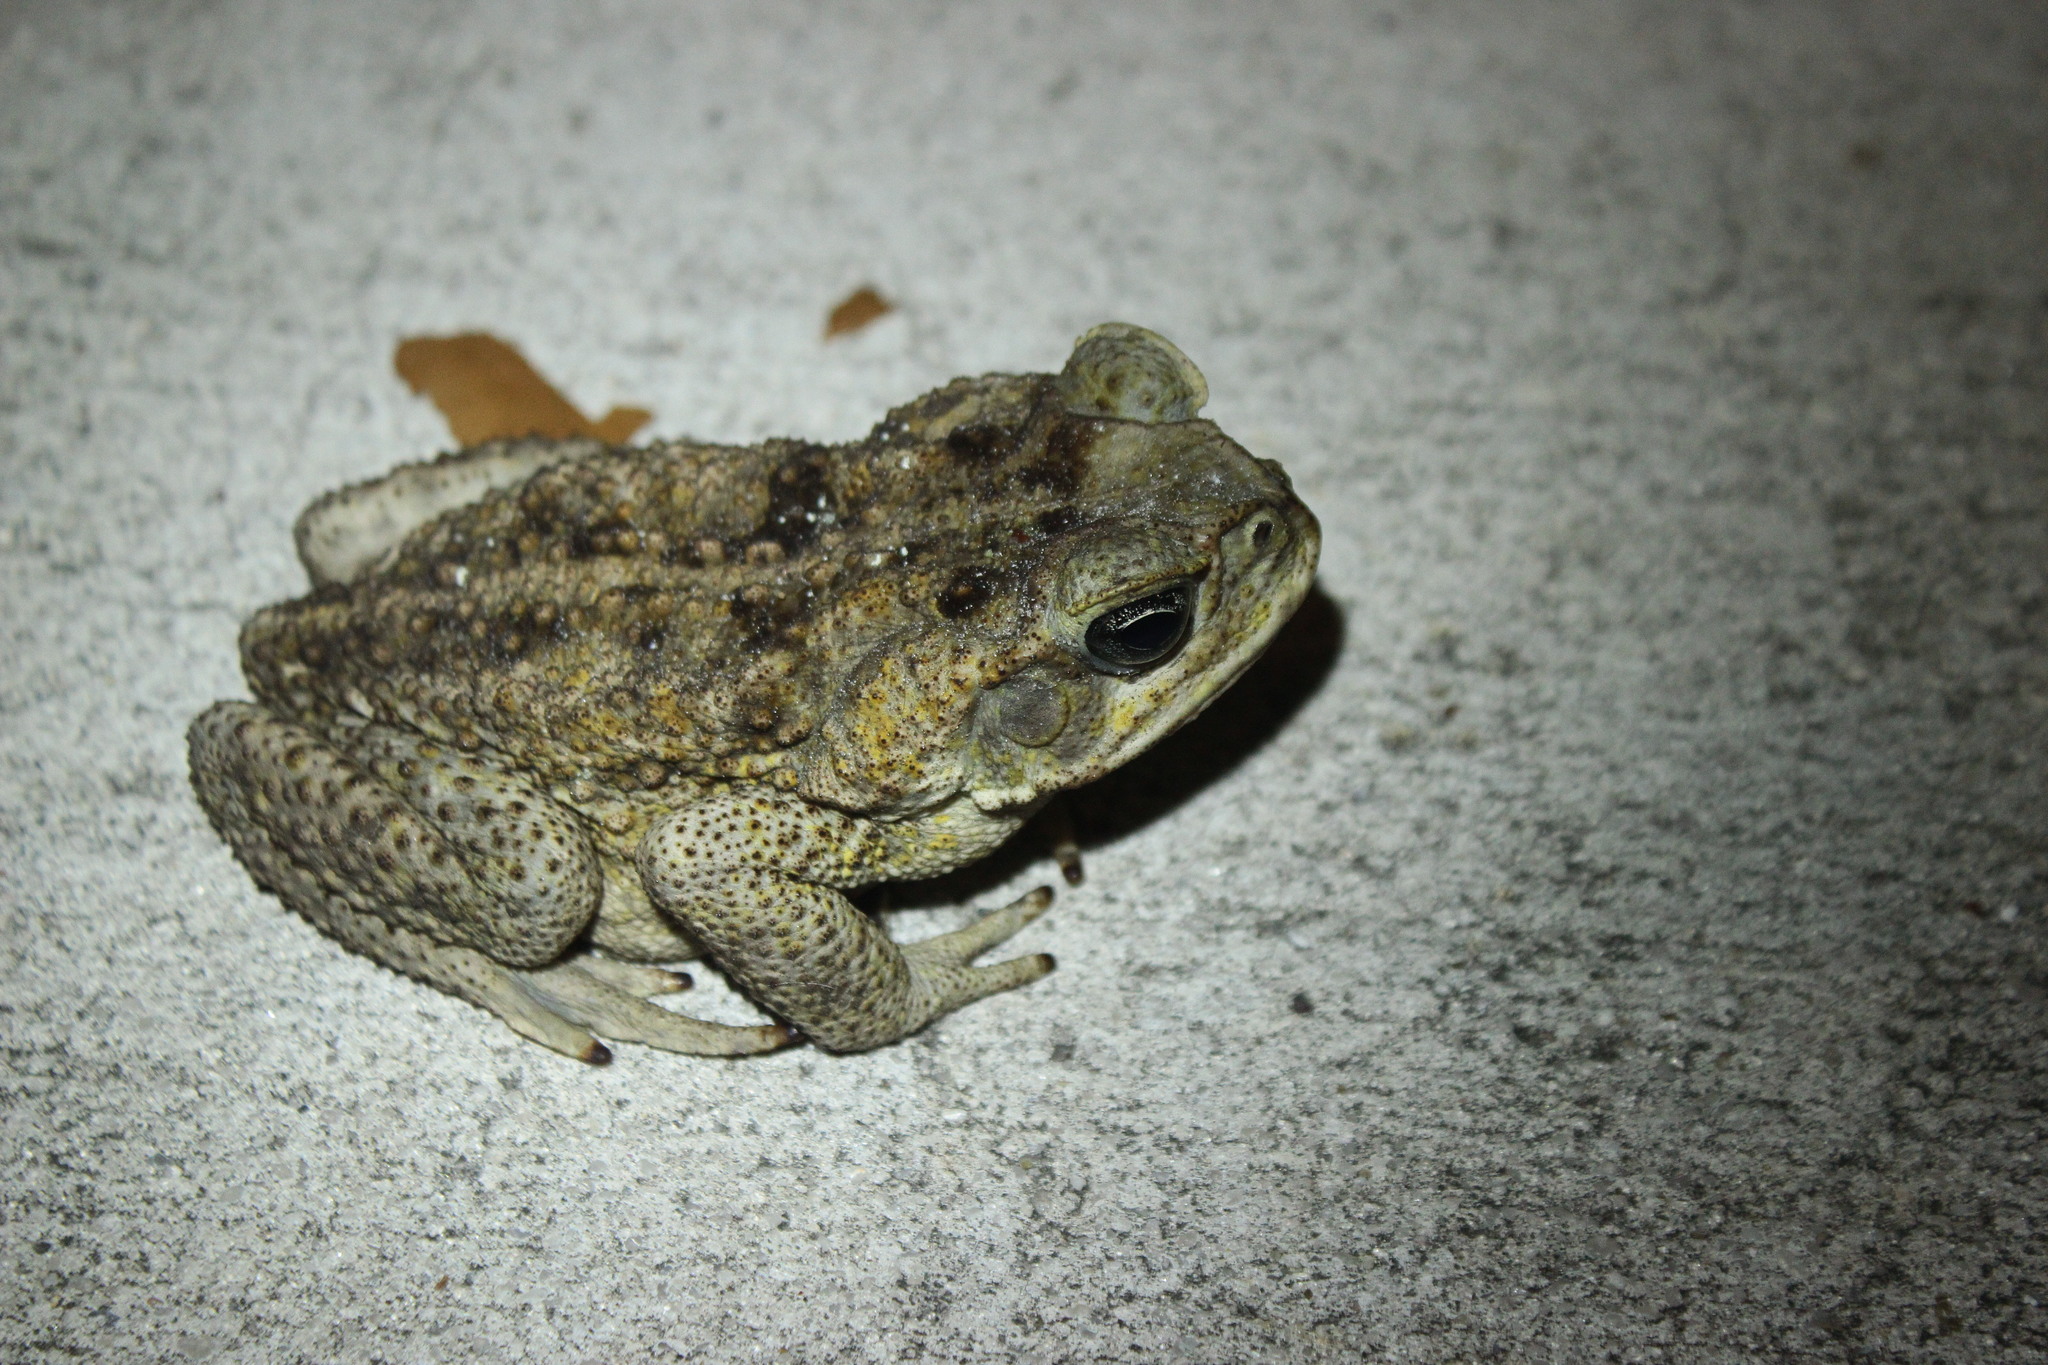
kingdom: Animalia
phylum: Chordata
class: Amphibia
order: Anura
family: Bufonidae
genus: Rhinella
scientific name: Rhinella marina
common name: Cane toad
